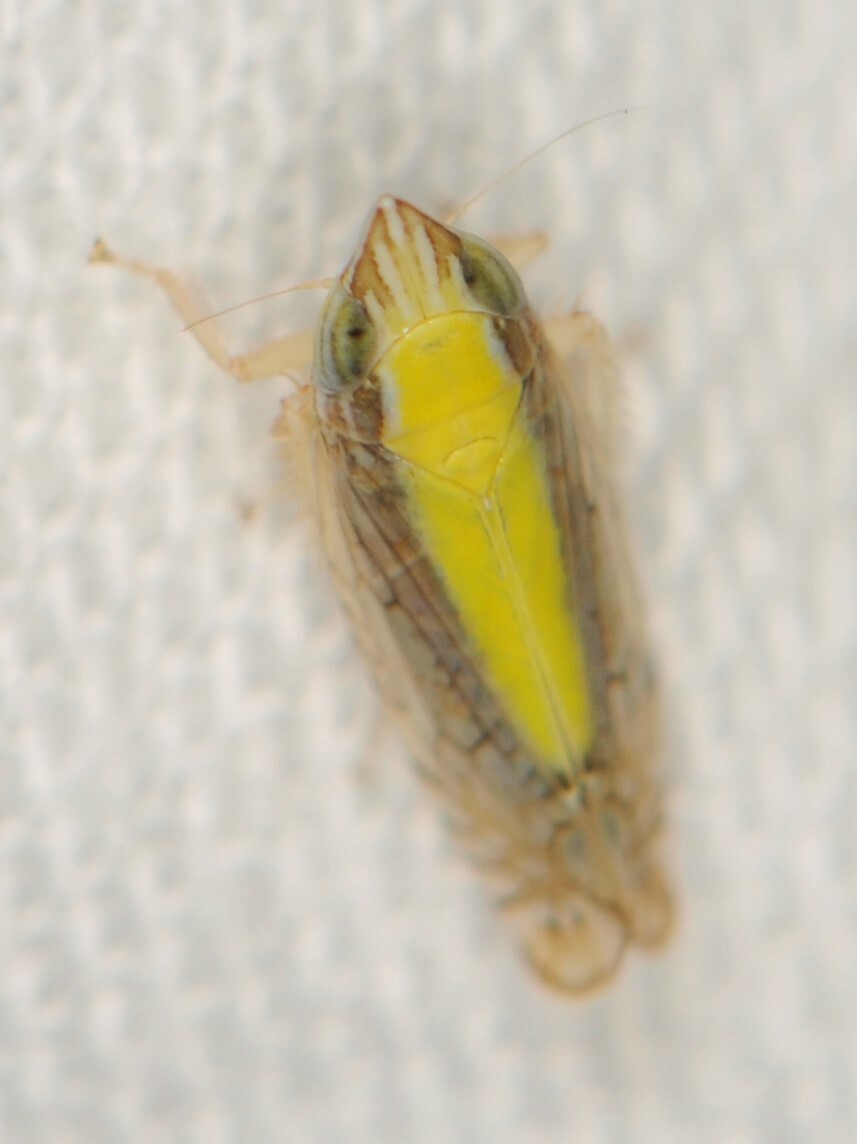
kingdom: Animalia
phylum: Arthropoda
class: Insecta
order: Hemiptera
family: Cicadellidae
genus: Scaphytopius
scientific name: Scaphytopius elegans
